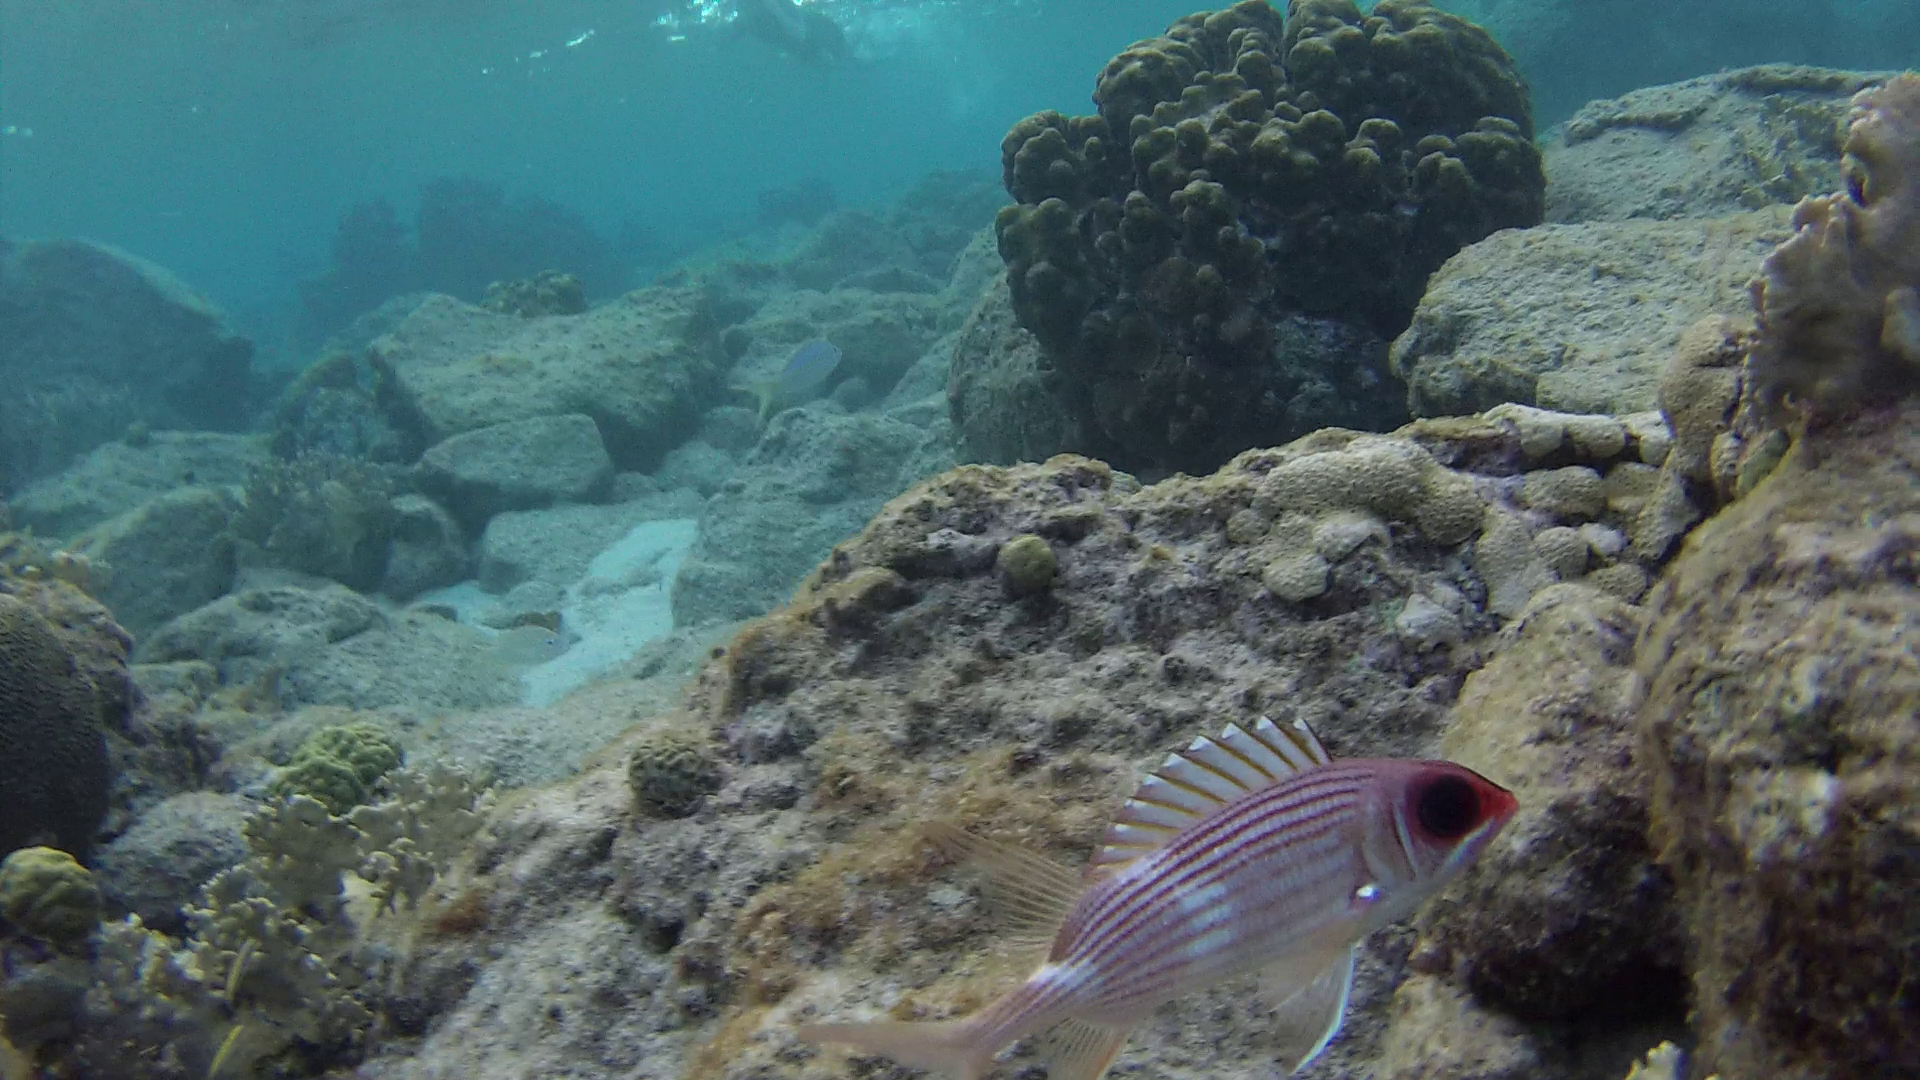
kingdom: Animalia
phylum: Chordata
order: Beryciformes
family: Holocentridae
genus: Holocentrus
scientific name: Holocentrus rufus
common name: Longspine squirrelfish
